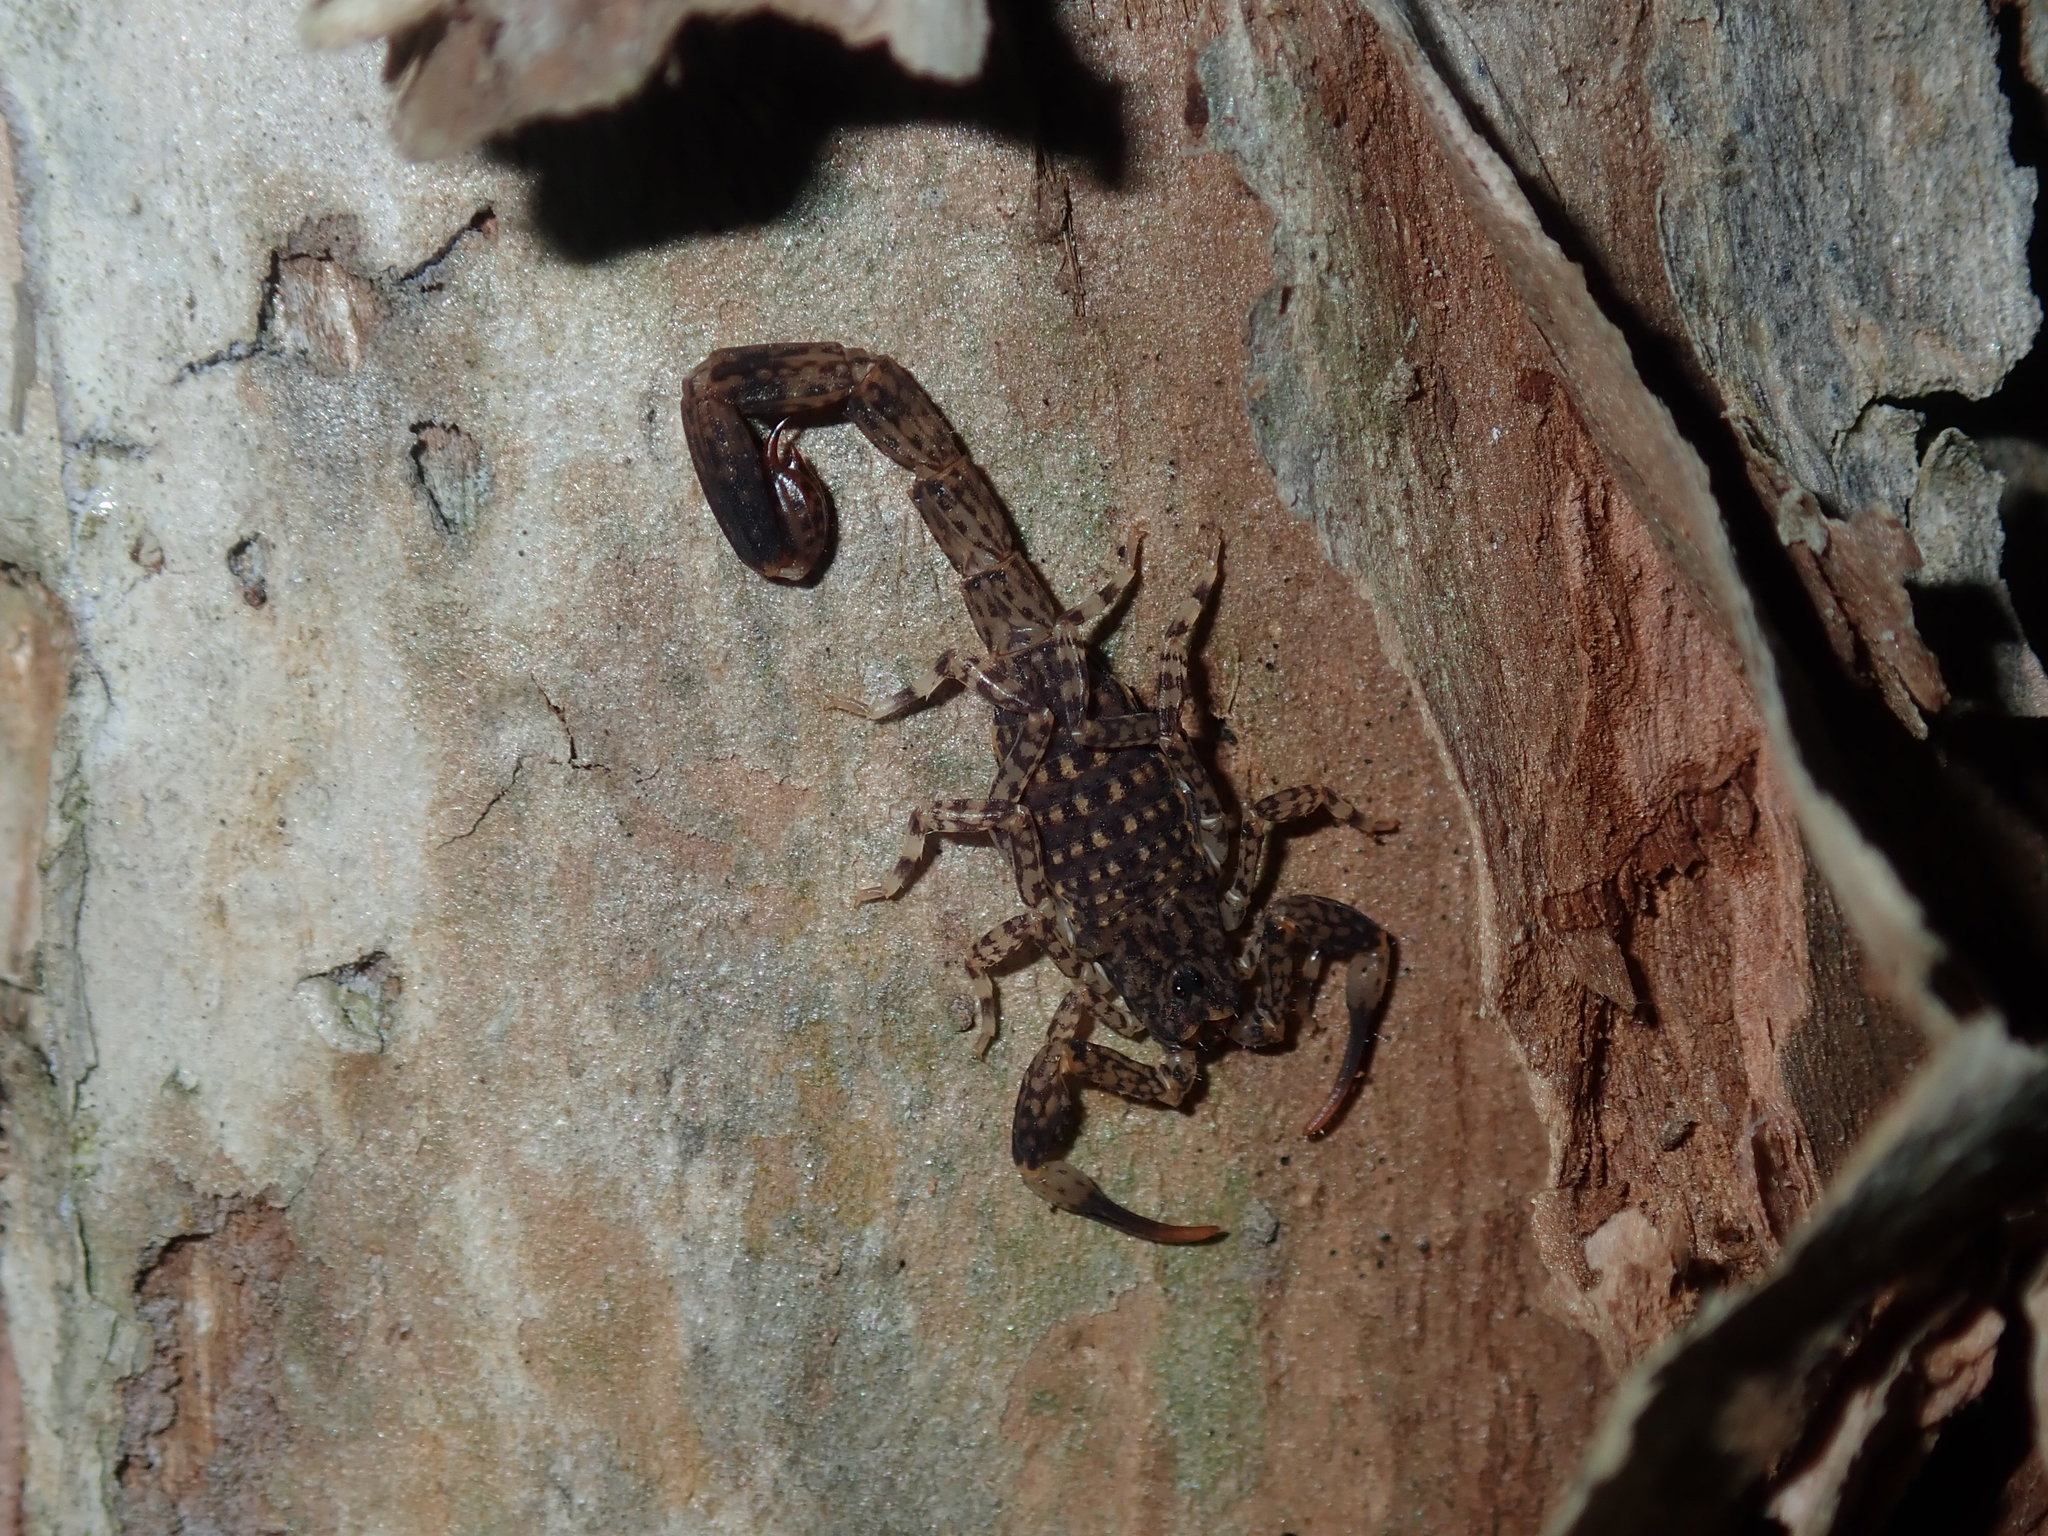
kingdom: Animalia
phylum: Arthropoda
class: Arachnida
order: Scorpiones
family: Buthidae
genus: Lychas
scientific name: Lychas marmoreus
